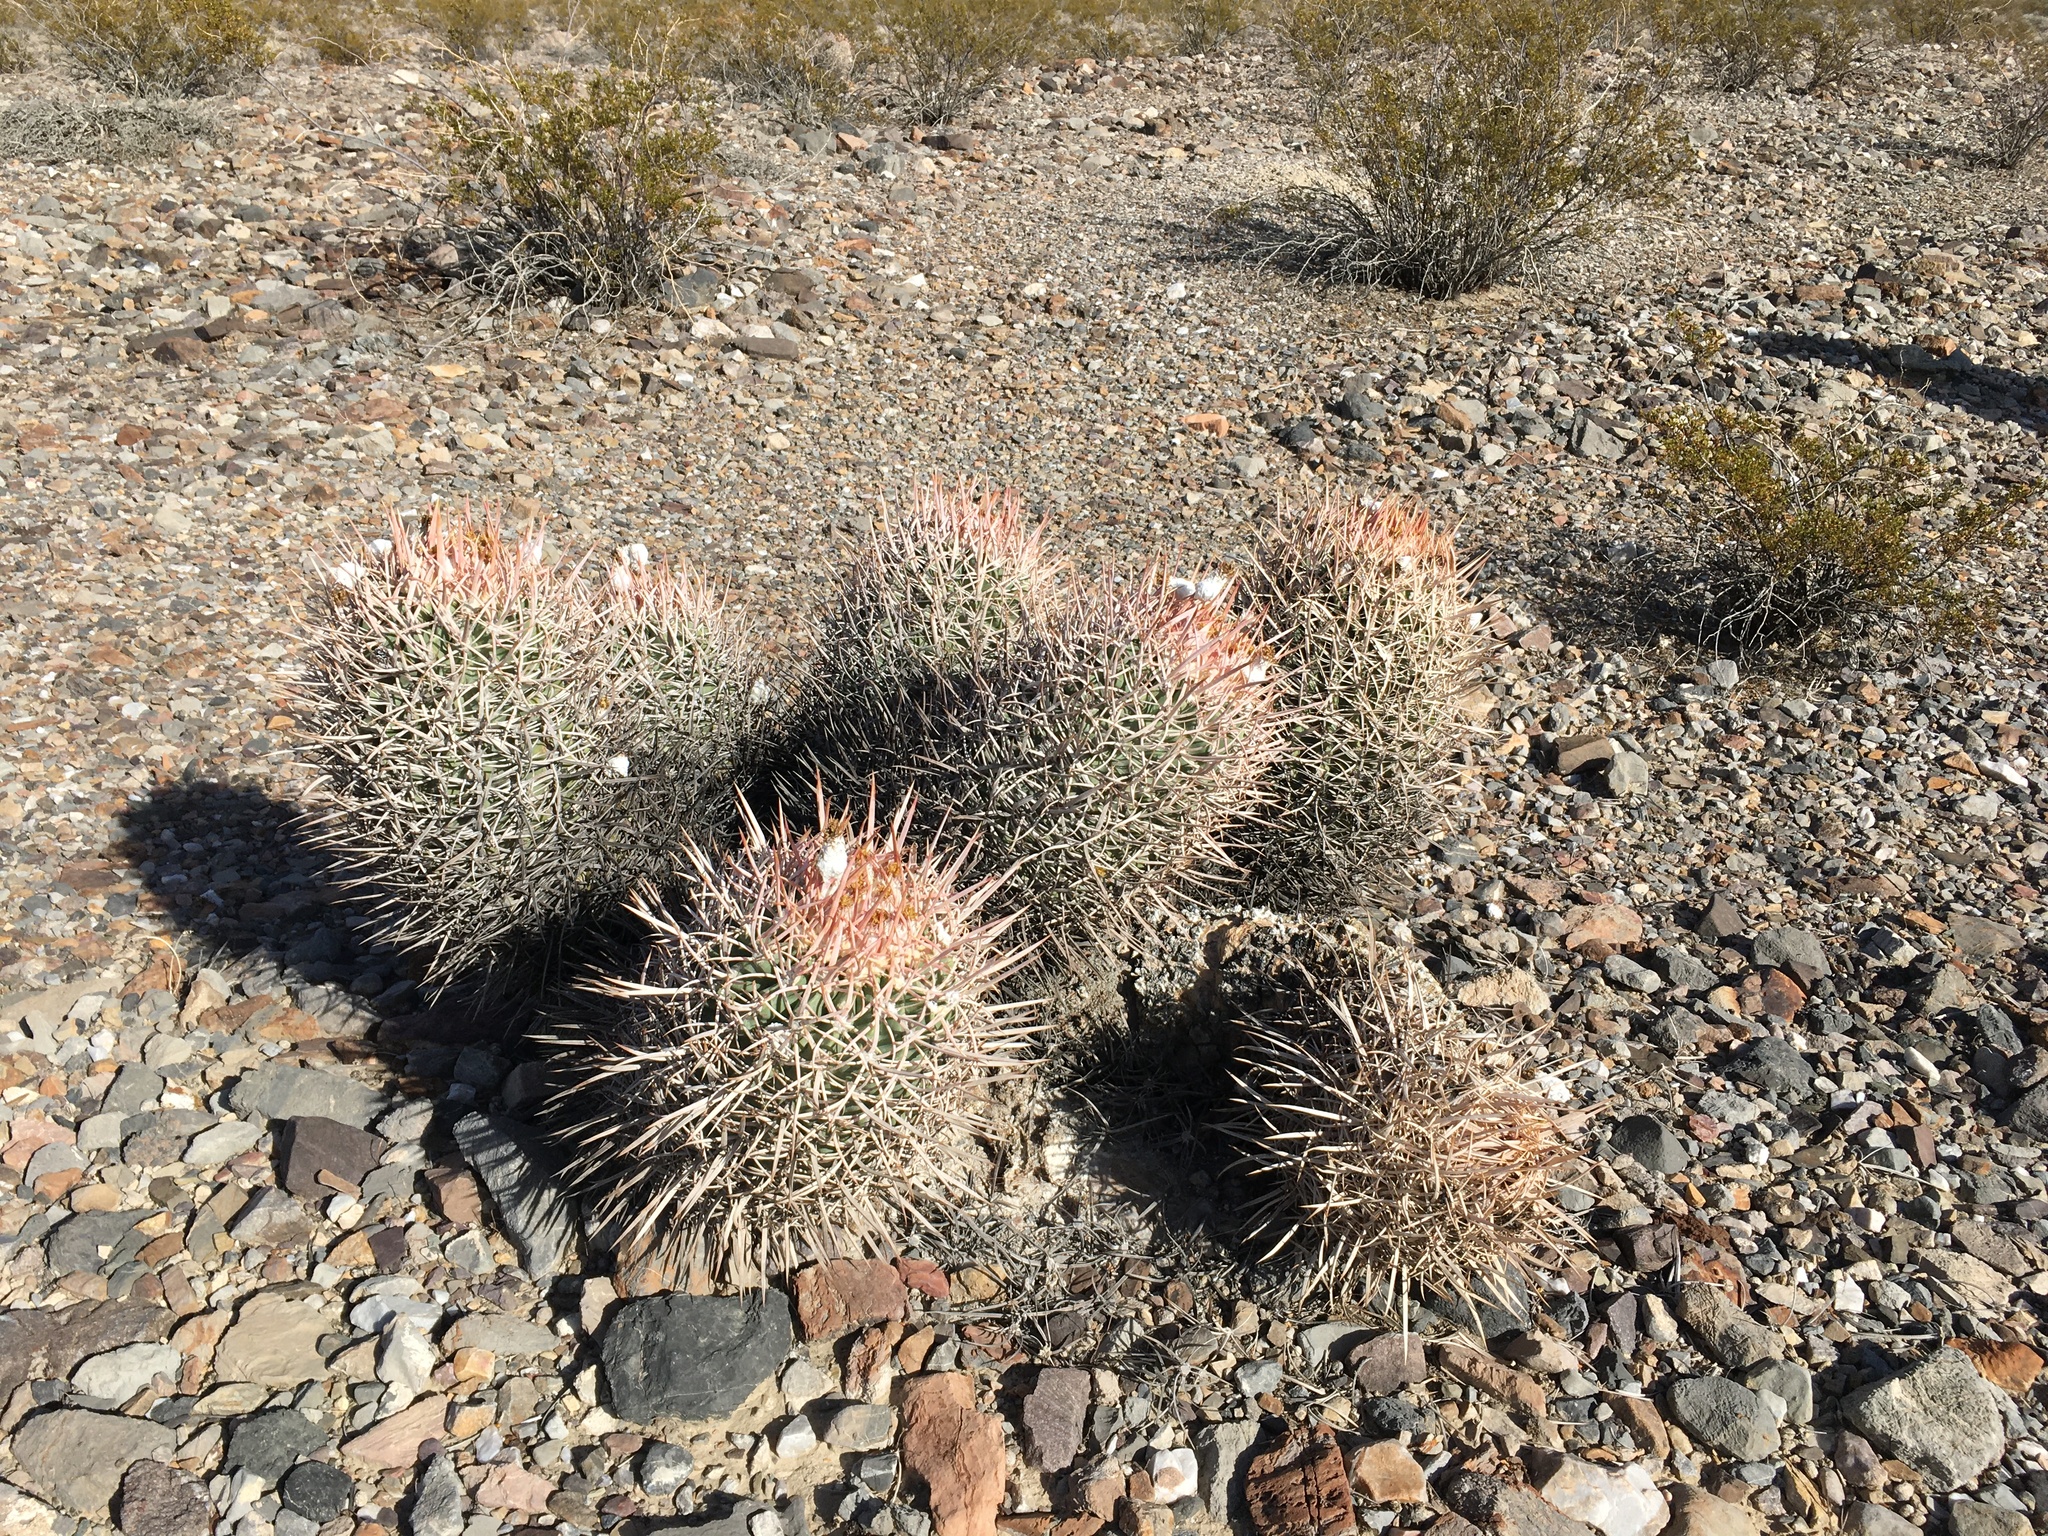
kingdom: Plantae
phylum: Tracheophyta
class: Magnoliopsida
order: Caryophyllales
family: Cactaceae
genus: Echinocactus
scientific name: Echinocactus polycephalus
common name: Cottontop cactus
